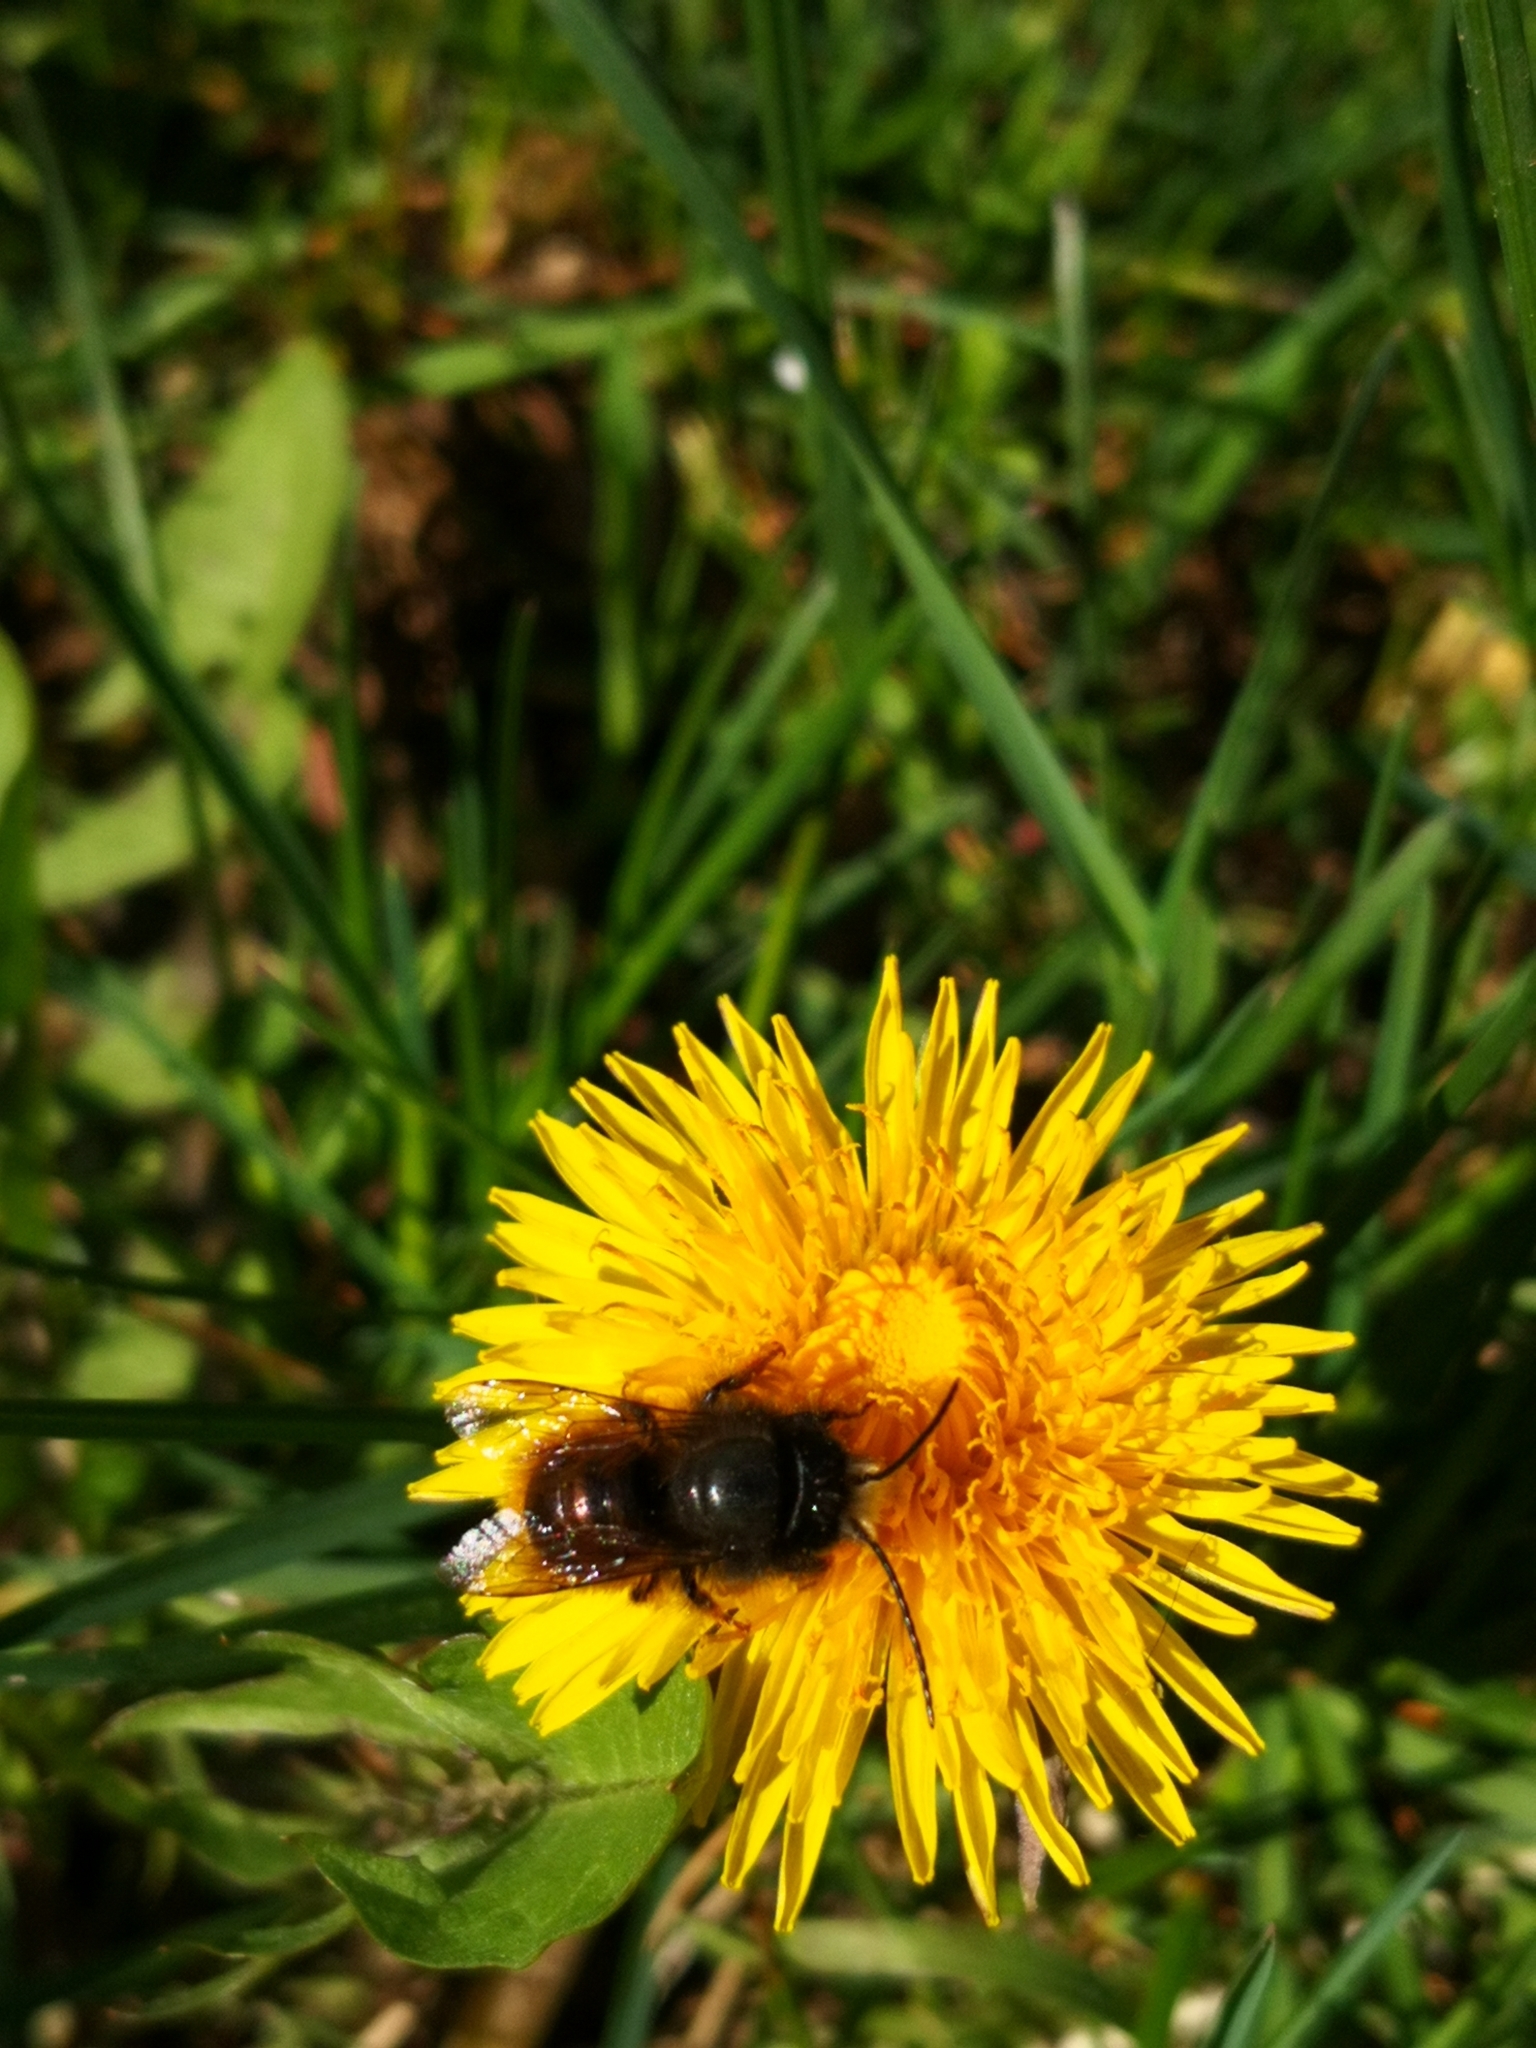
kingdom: Animalia
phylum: Arthropoda
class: Insecta
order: Hymenoptera
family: Megachilidae
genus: Osmia
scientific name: Osmia cornuta
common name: Mason bee
